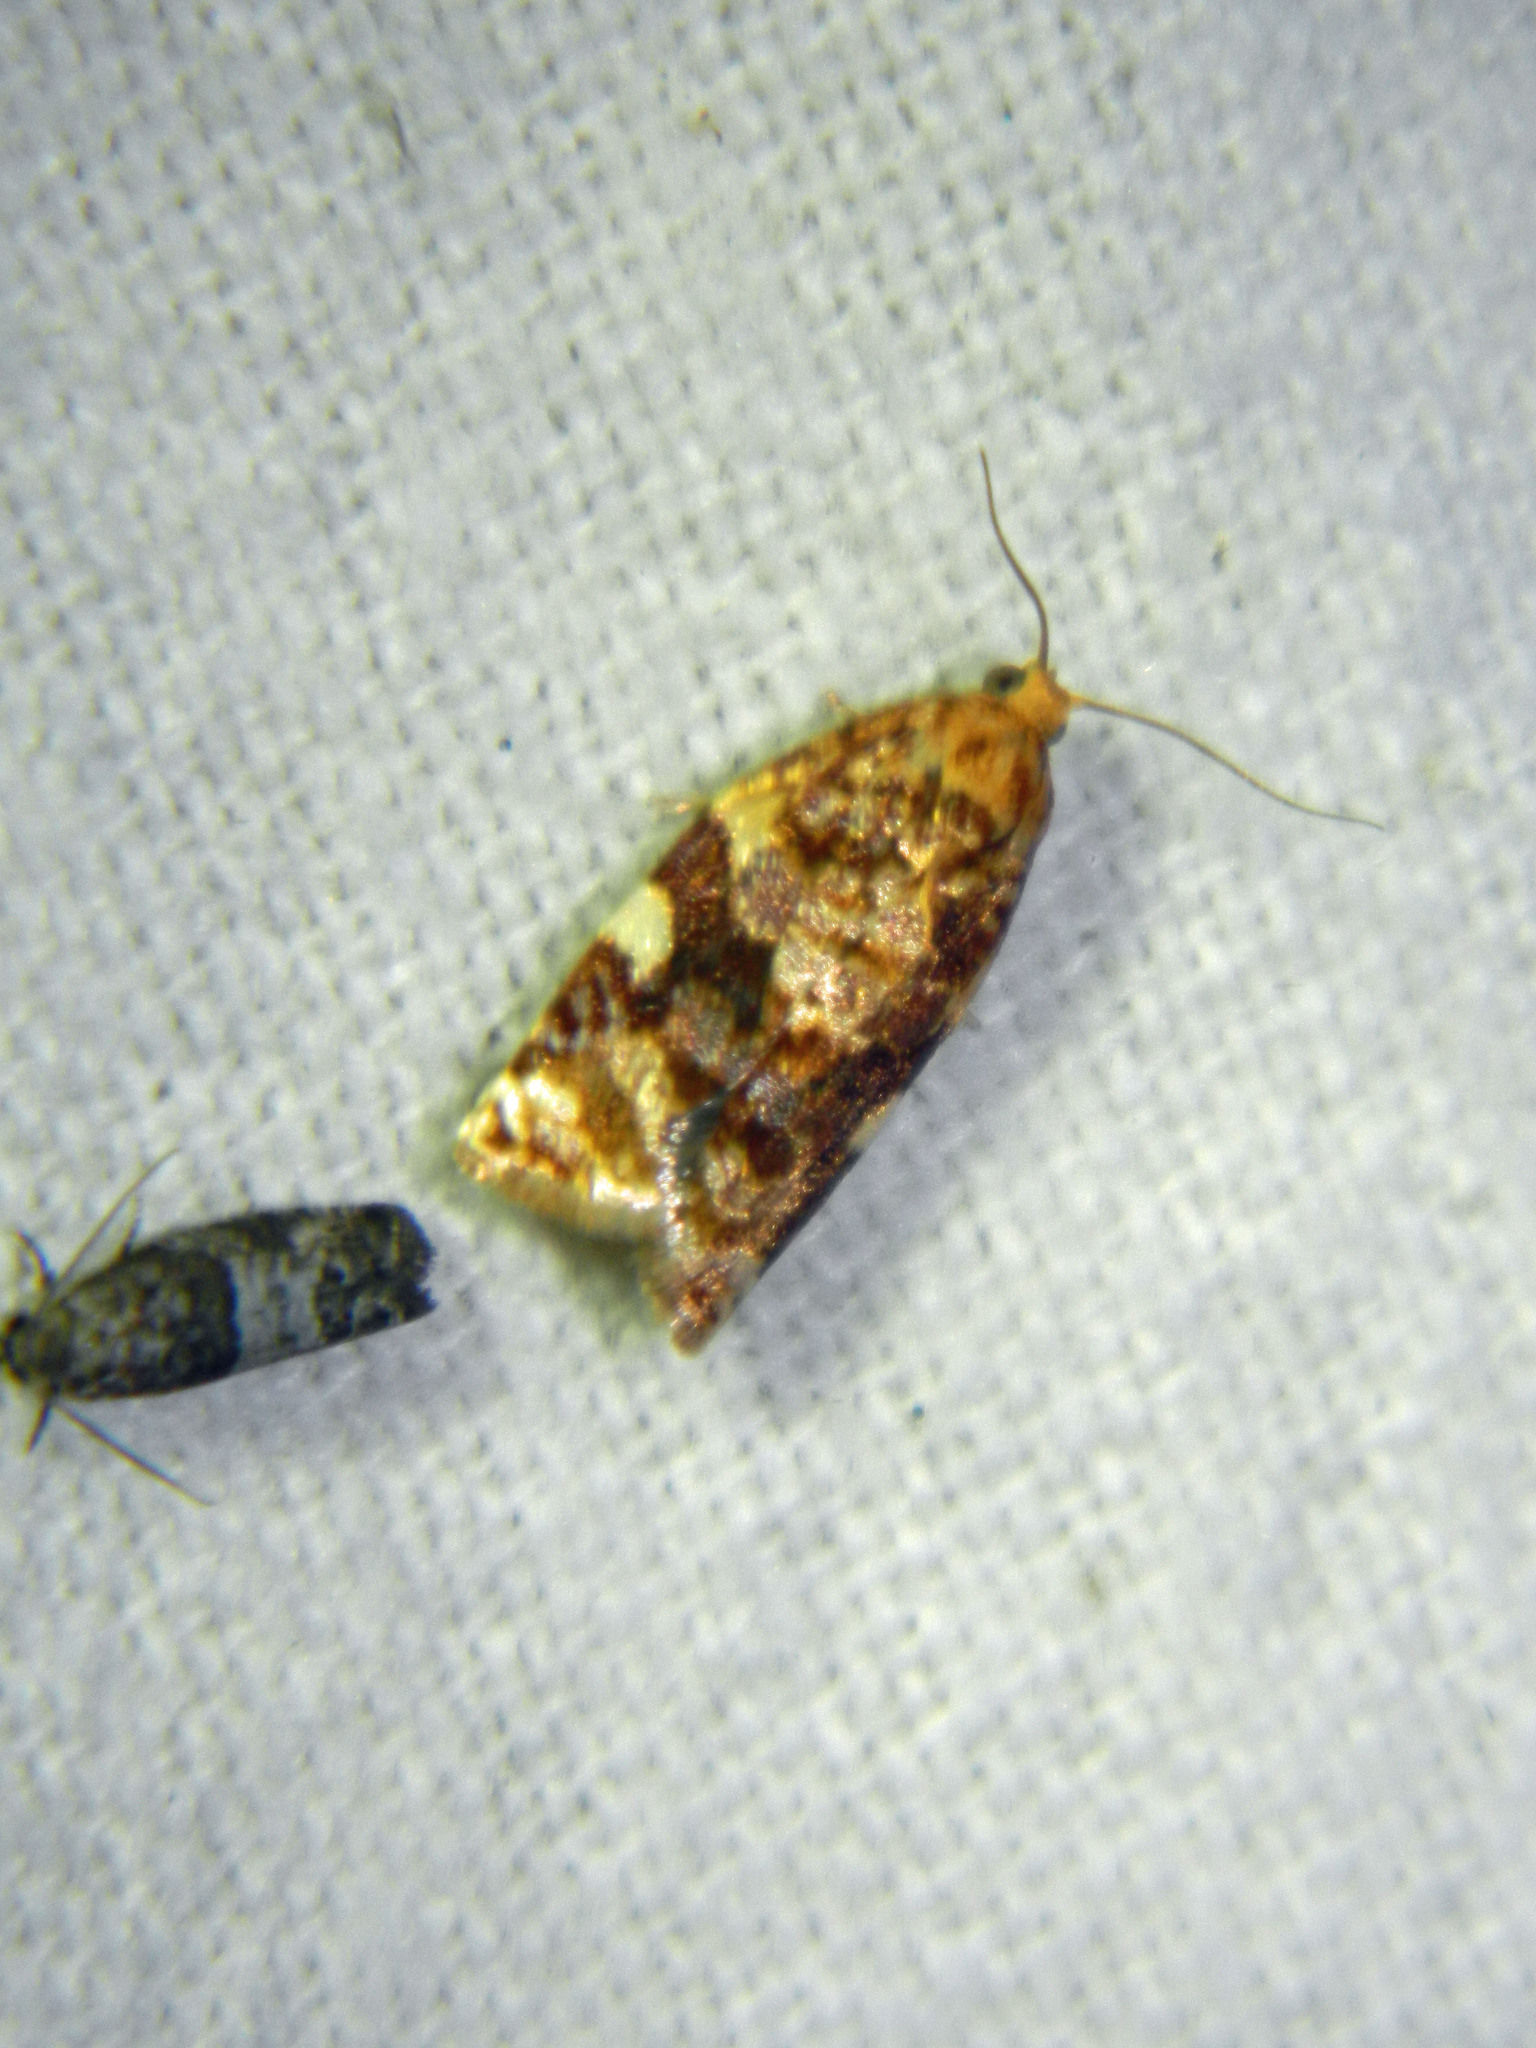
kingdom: Animalia
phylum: Arthropoda
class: Insecta
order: Lepidoptera
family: Tortricidae
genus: Archips
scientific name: Archips argyrospila
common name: Fruit-tree leafroller moth
